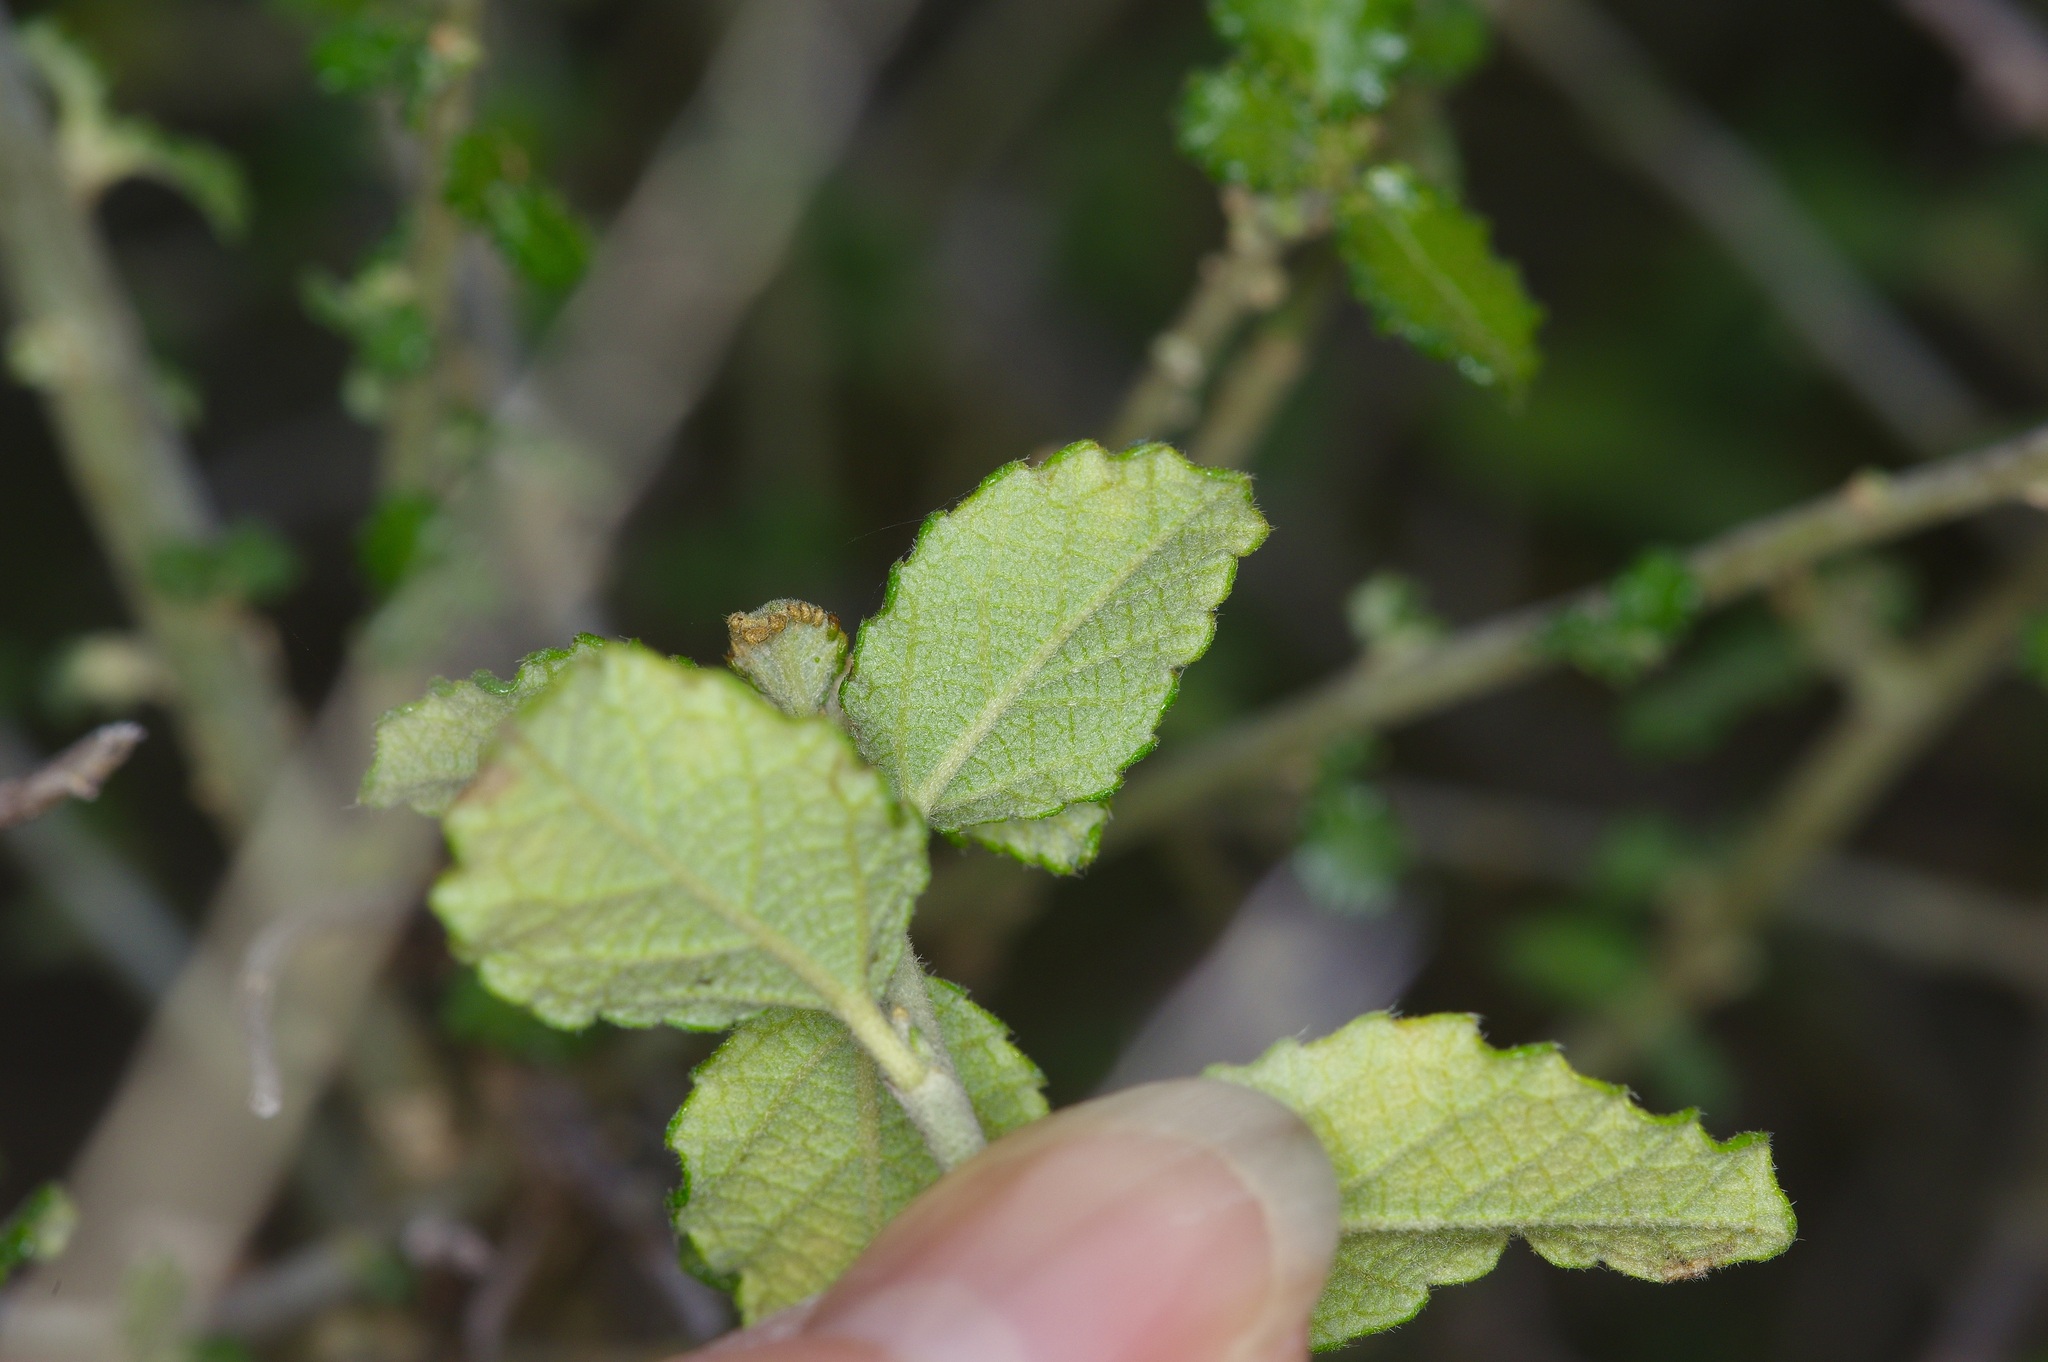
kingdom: Plantae
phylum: Tracheophyta
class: Magnoliopsida
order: Malpighiales
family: Euphorbiaceae
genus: Bernardia
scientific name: Bernardia myricifolia
